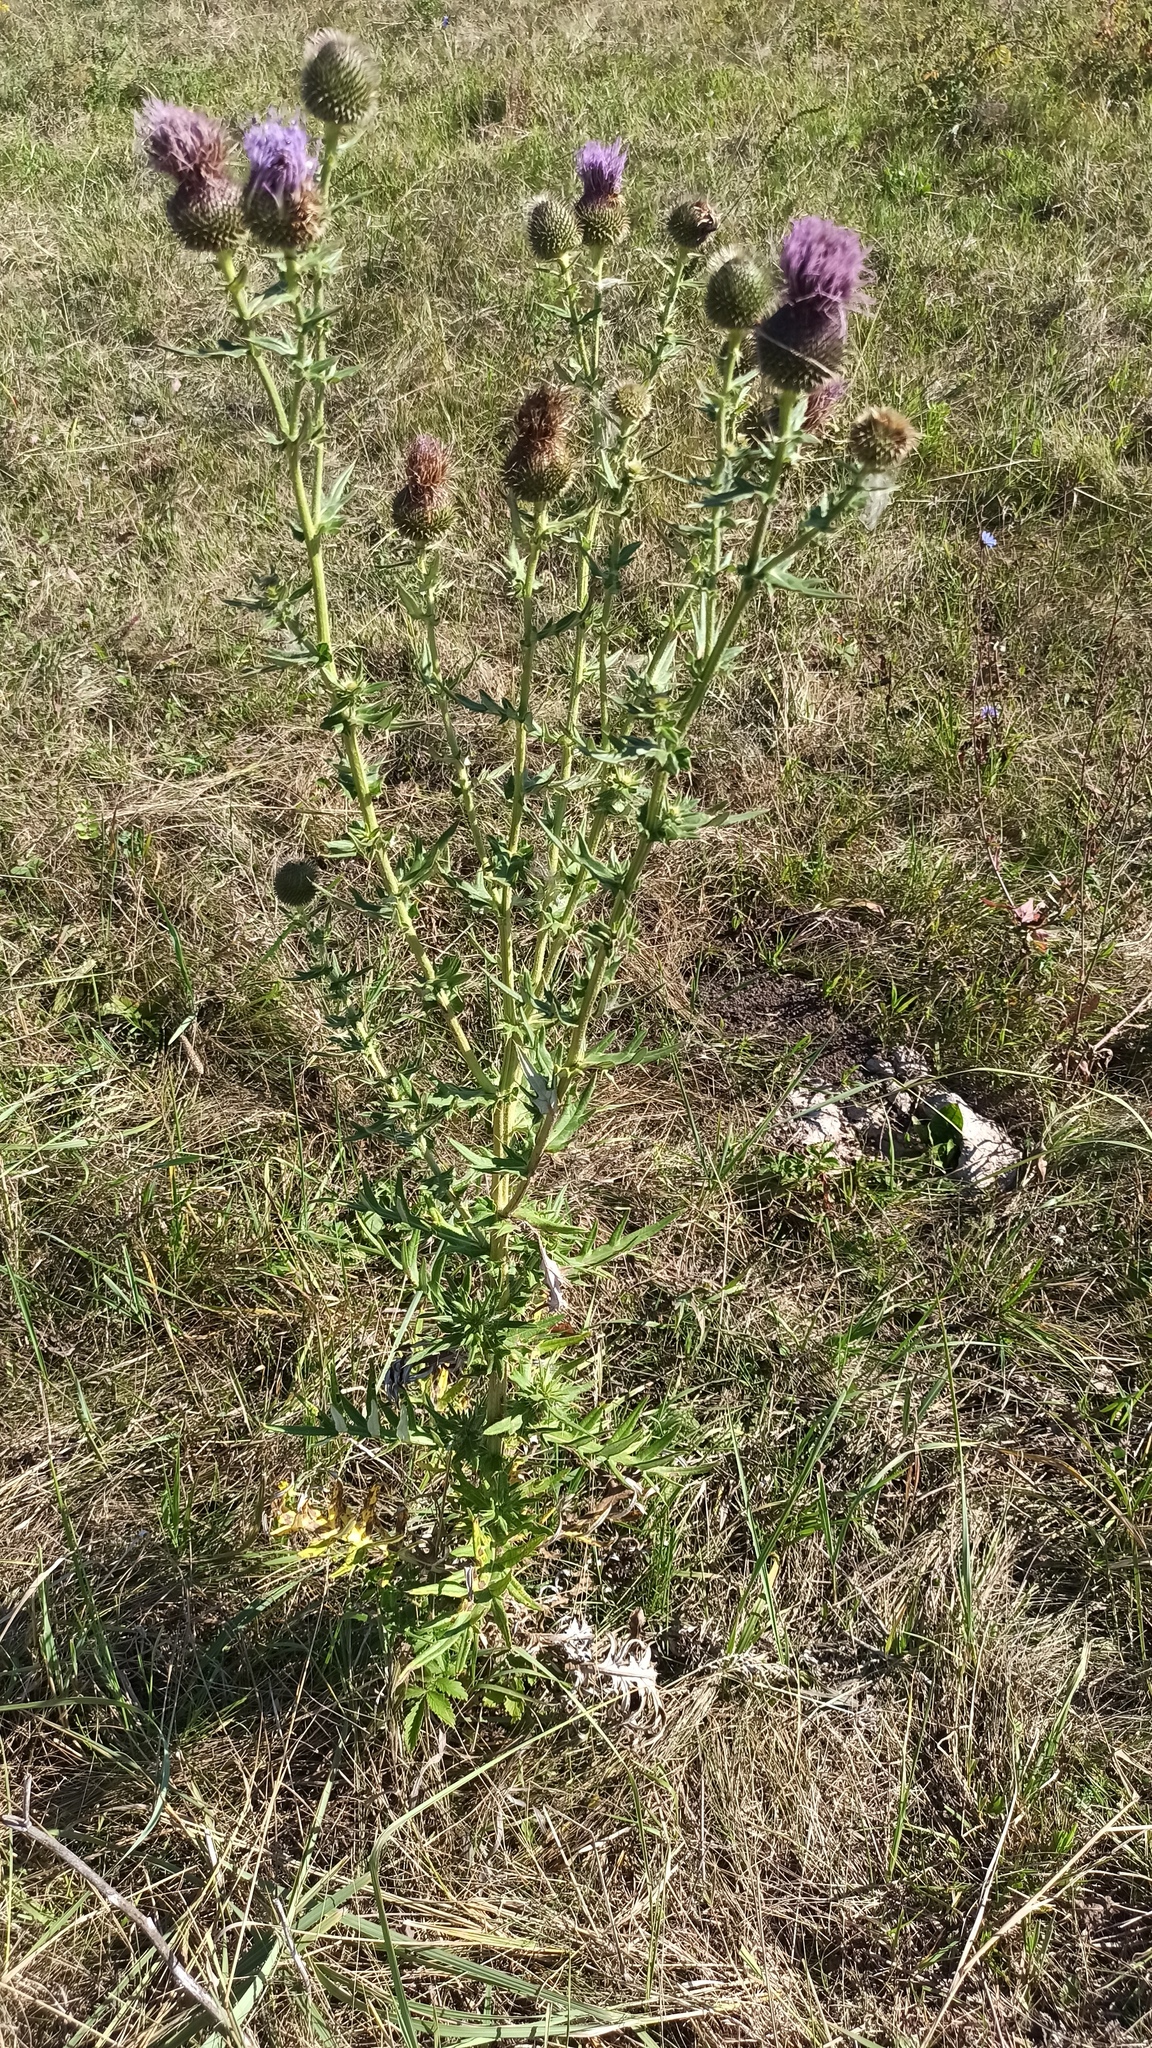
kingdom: Plantae
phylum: Tracheophyta
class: Magnoliopsida
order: Asterales
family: Asteraceae
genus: Cirsium
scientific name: Cirsium serrulatum
